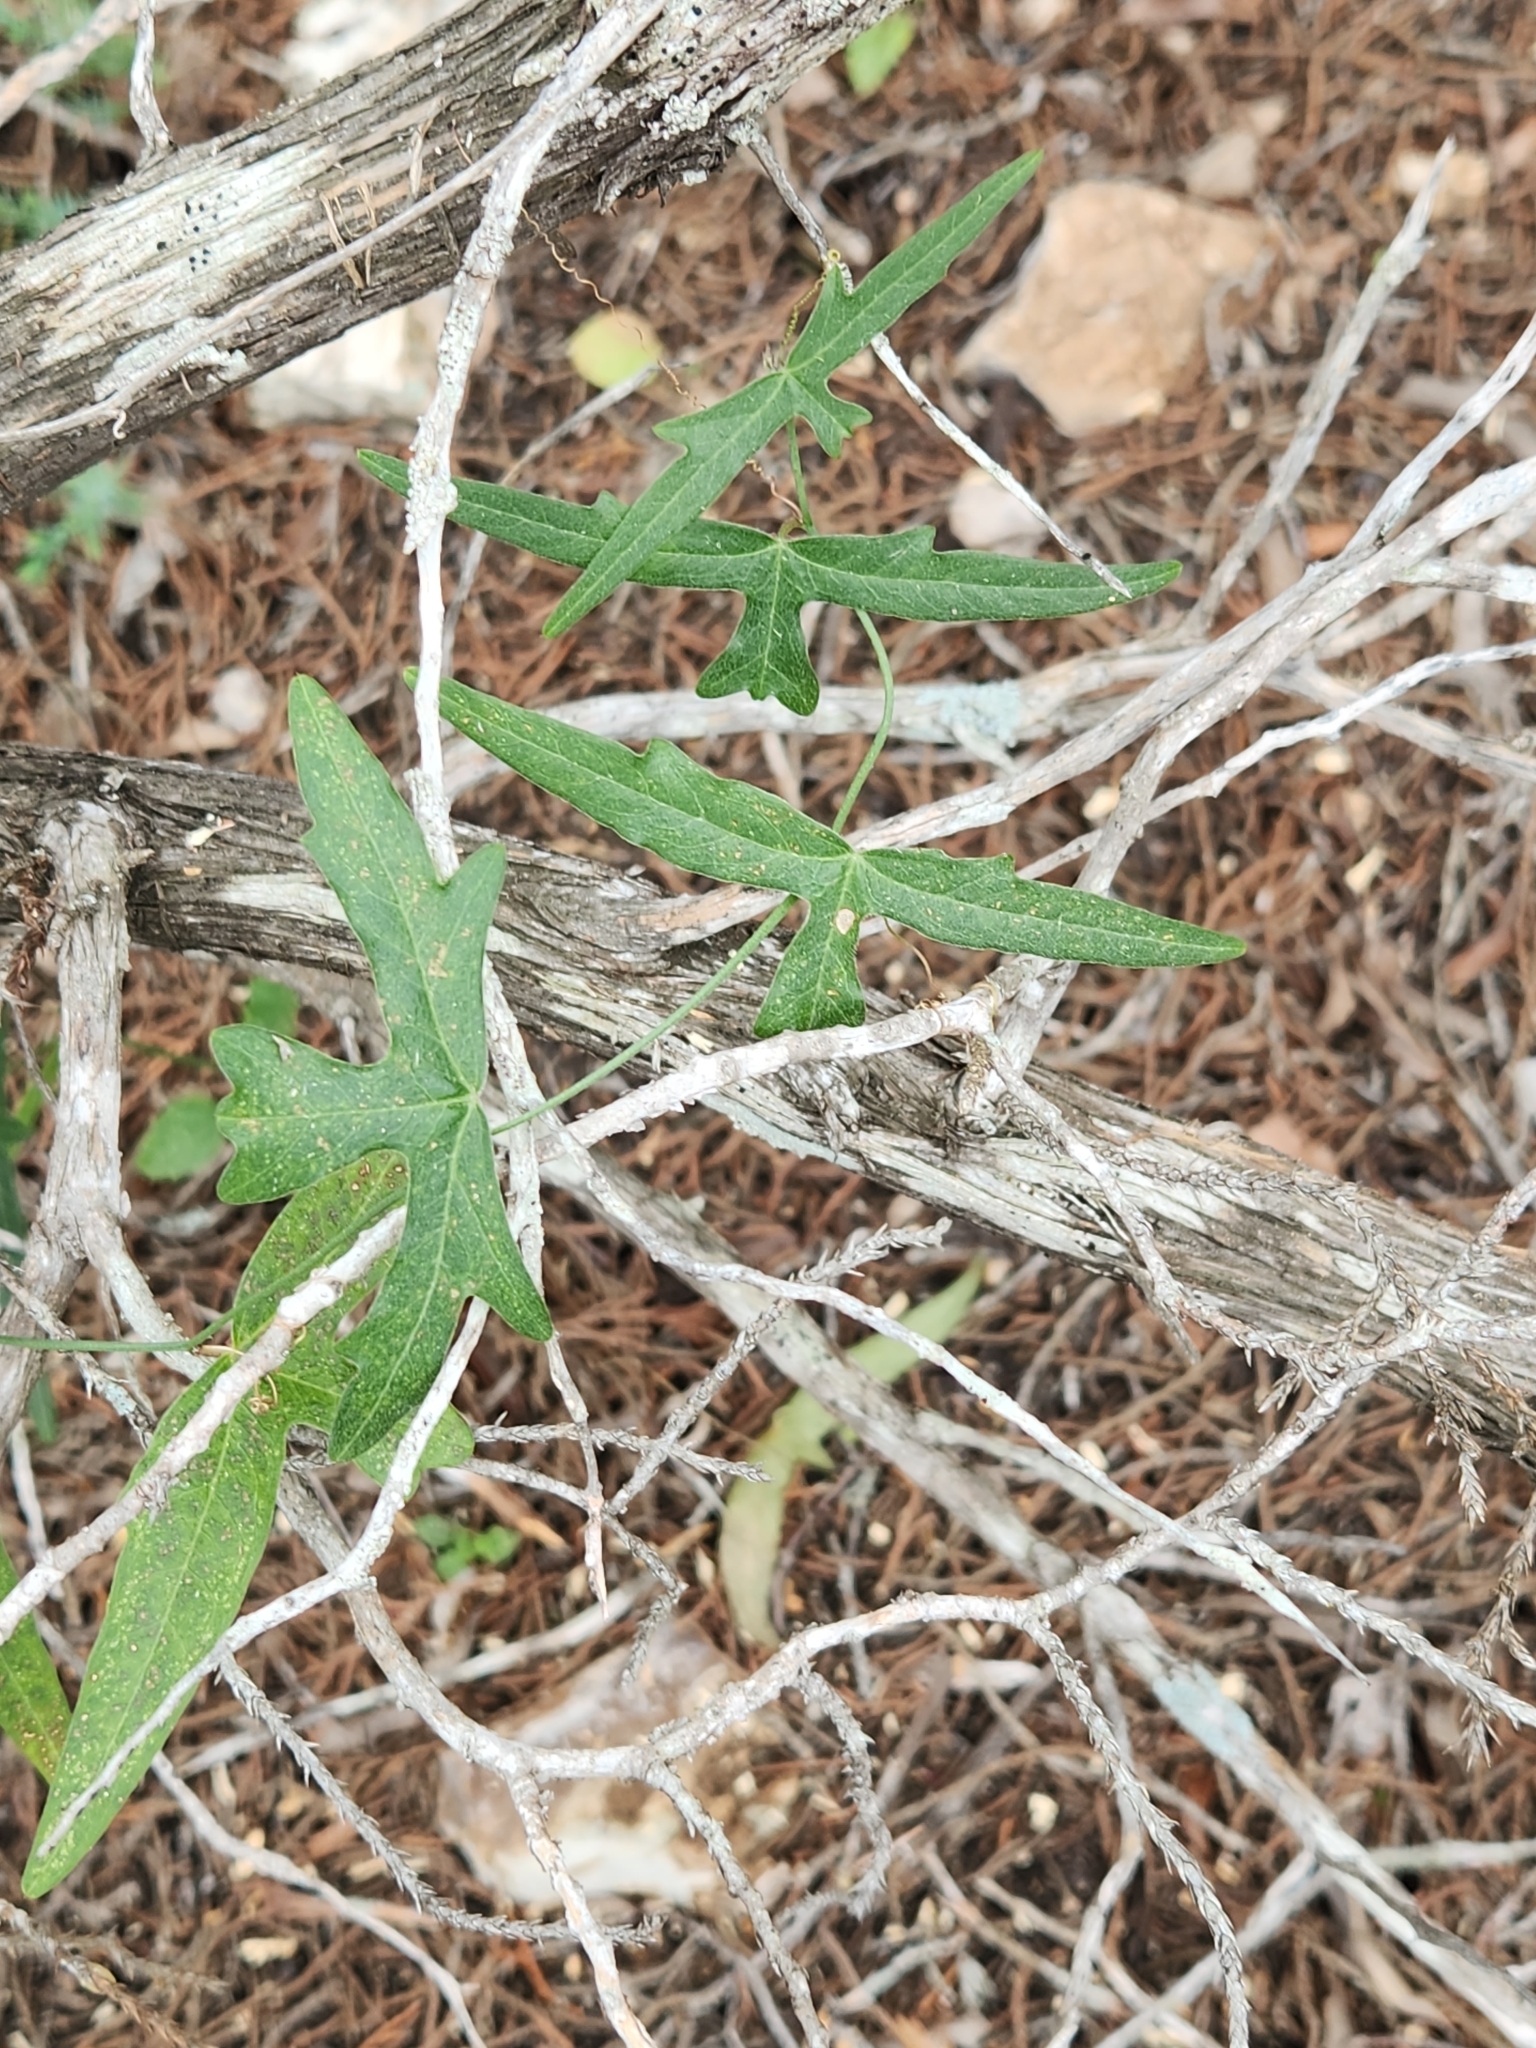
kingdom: Plantae
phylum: Tracheophyta
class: Magnoliopsida
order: Malpighiales
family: Passifloraceae
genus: Passiflora
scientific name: Passiflora tenuiloba
